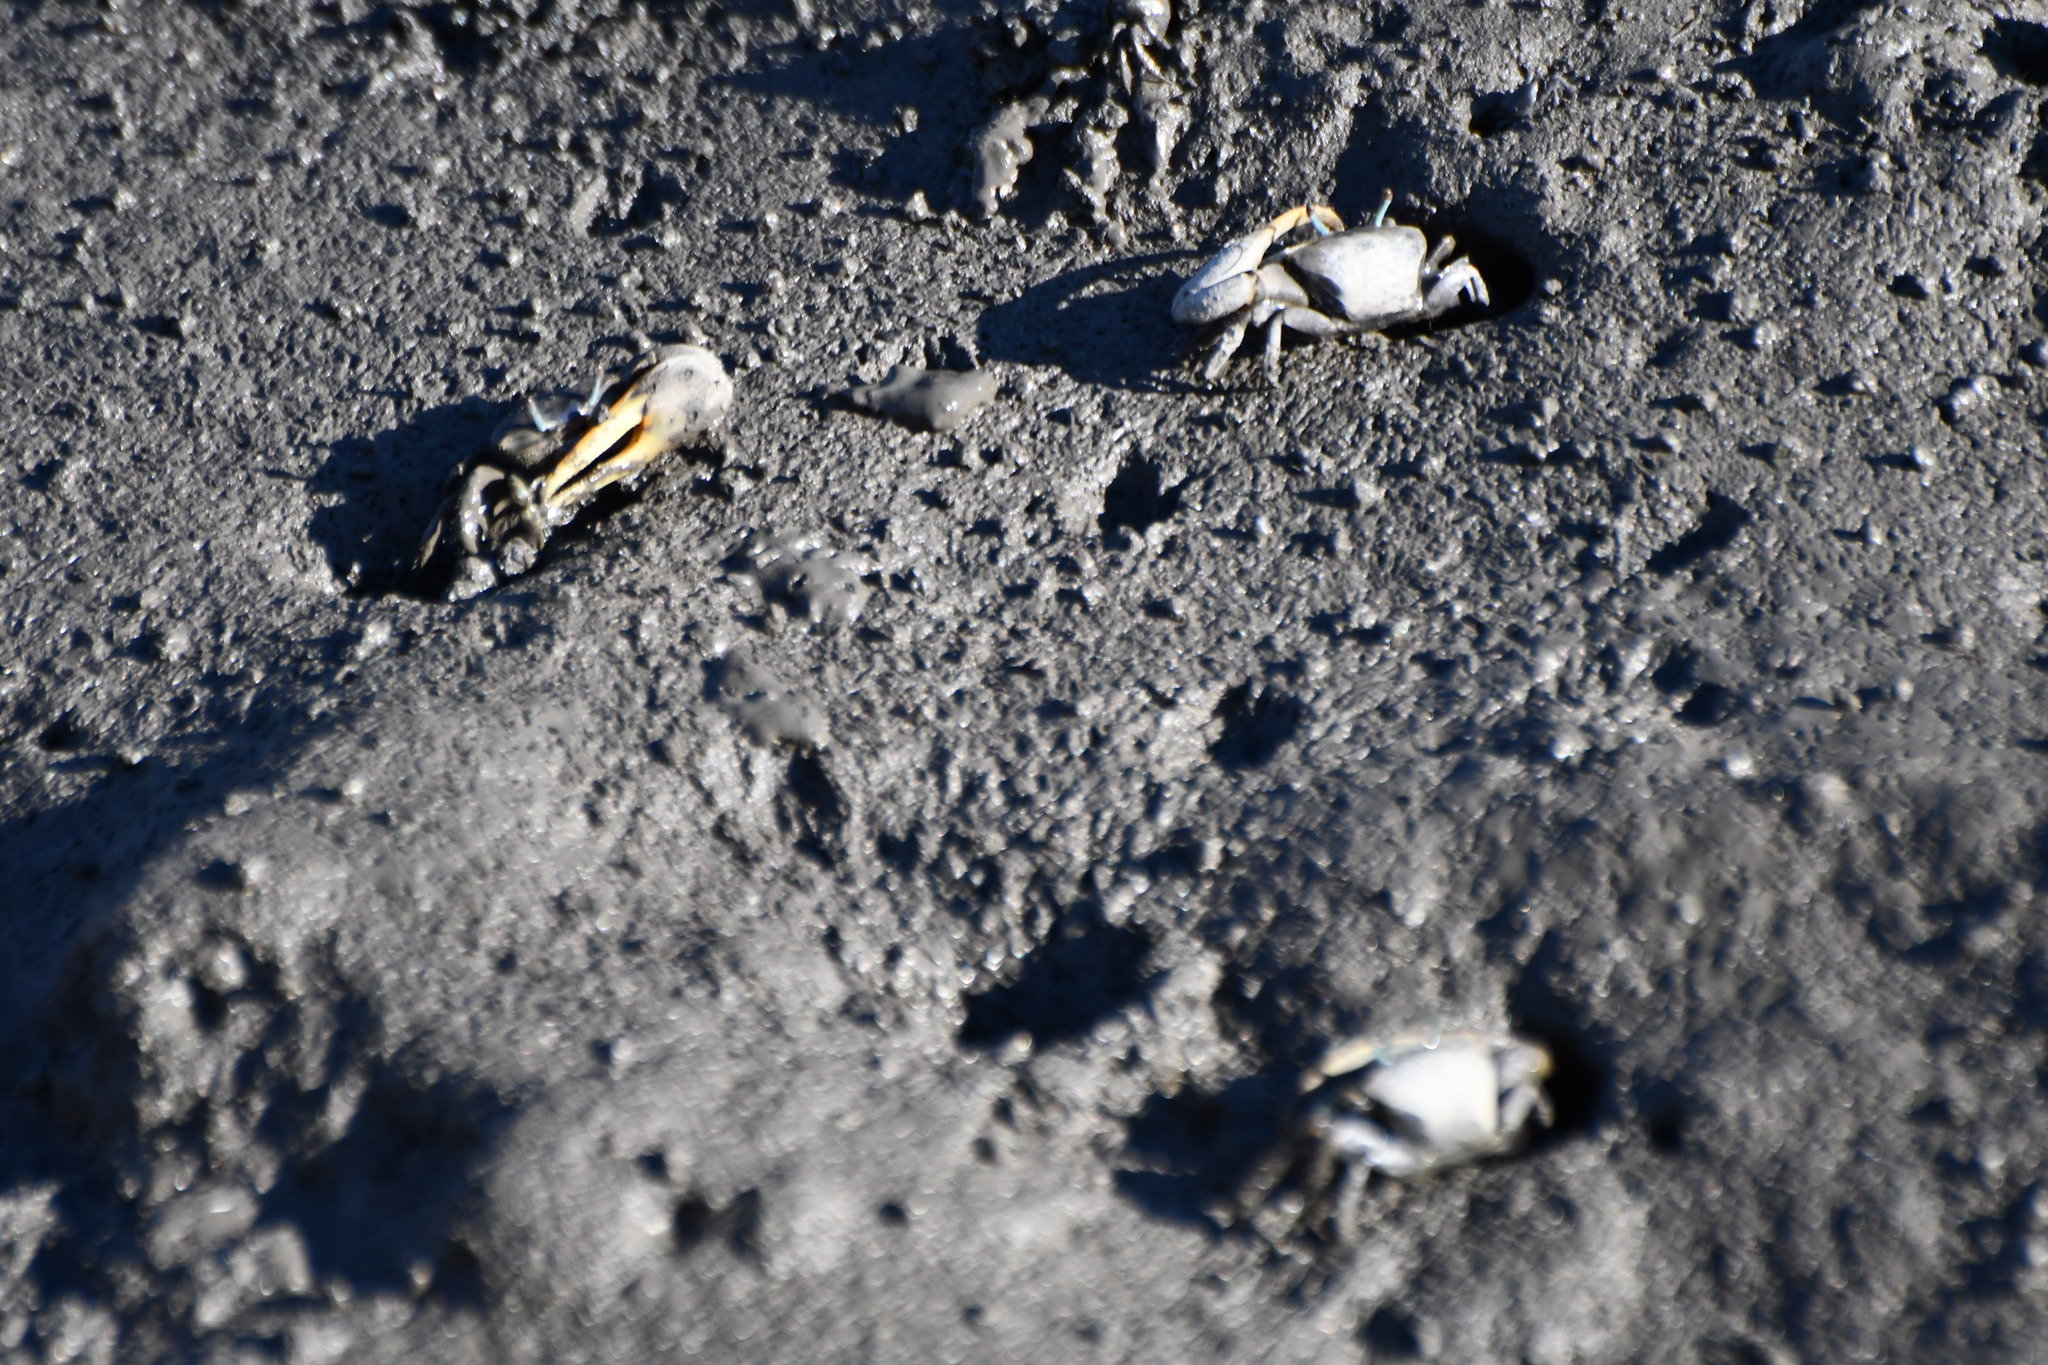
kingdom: Animalia
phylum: Arthropoda
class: Malacostraca
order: Decapoda
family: Ocypodidae
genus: Minuca
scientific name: Minuca pugnax
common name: Mud fiddler crab
